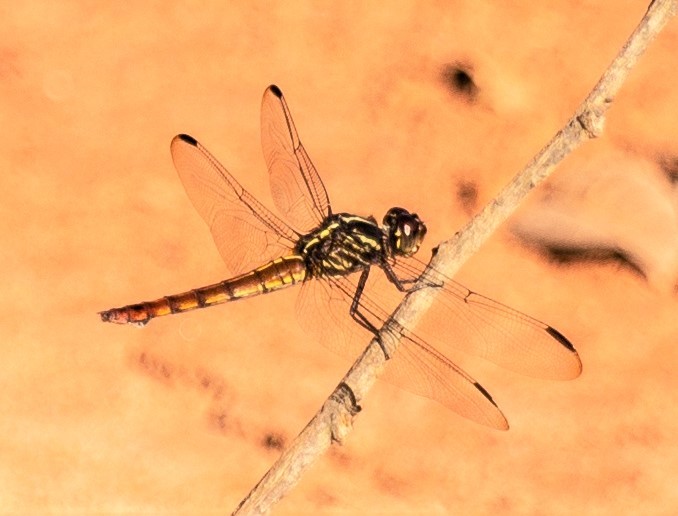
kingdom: Animalia
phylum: Arthropoda
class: Insecta
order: Odonata
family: Libellulidae
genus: Orthemis
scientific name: Orthemis schmidti
